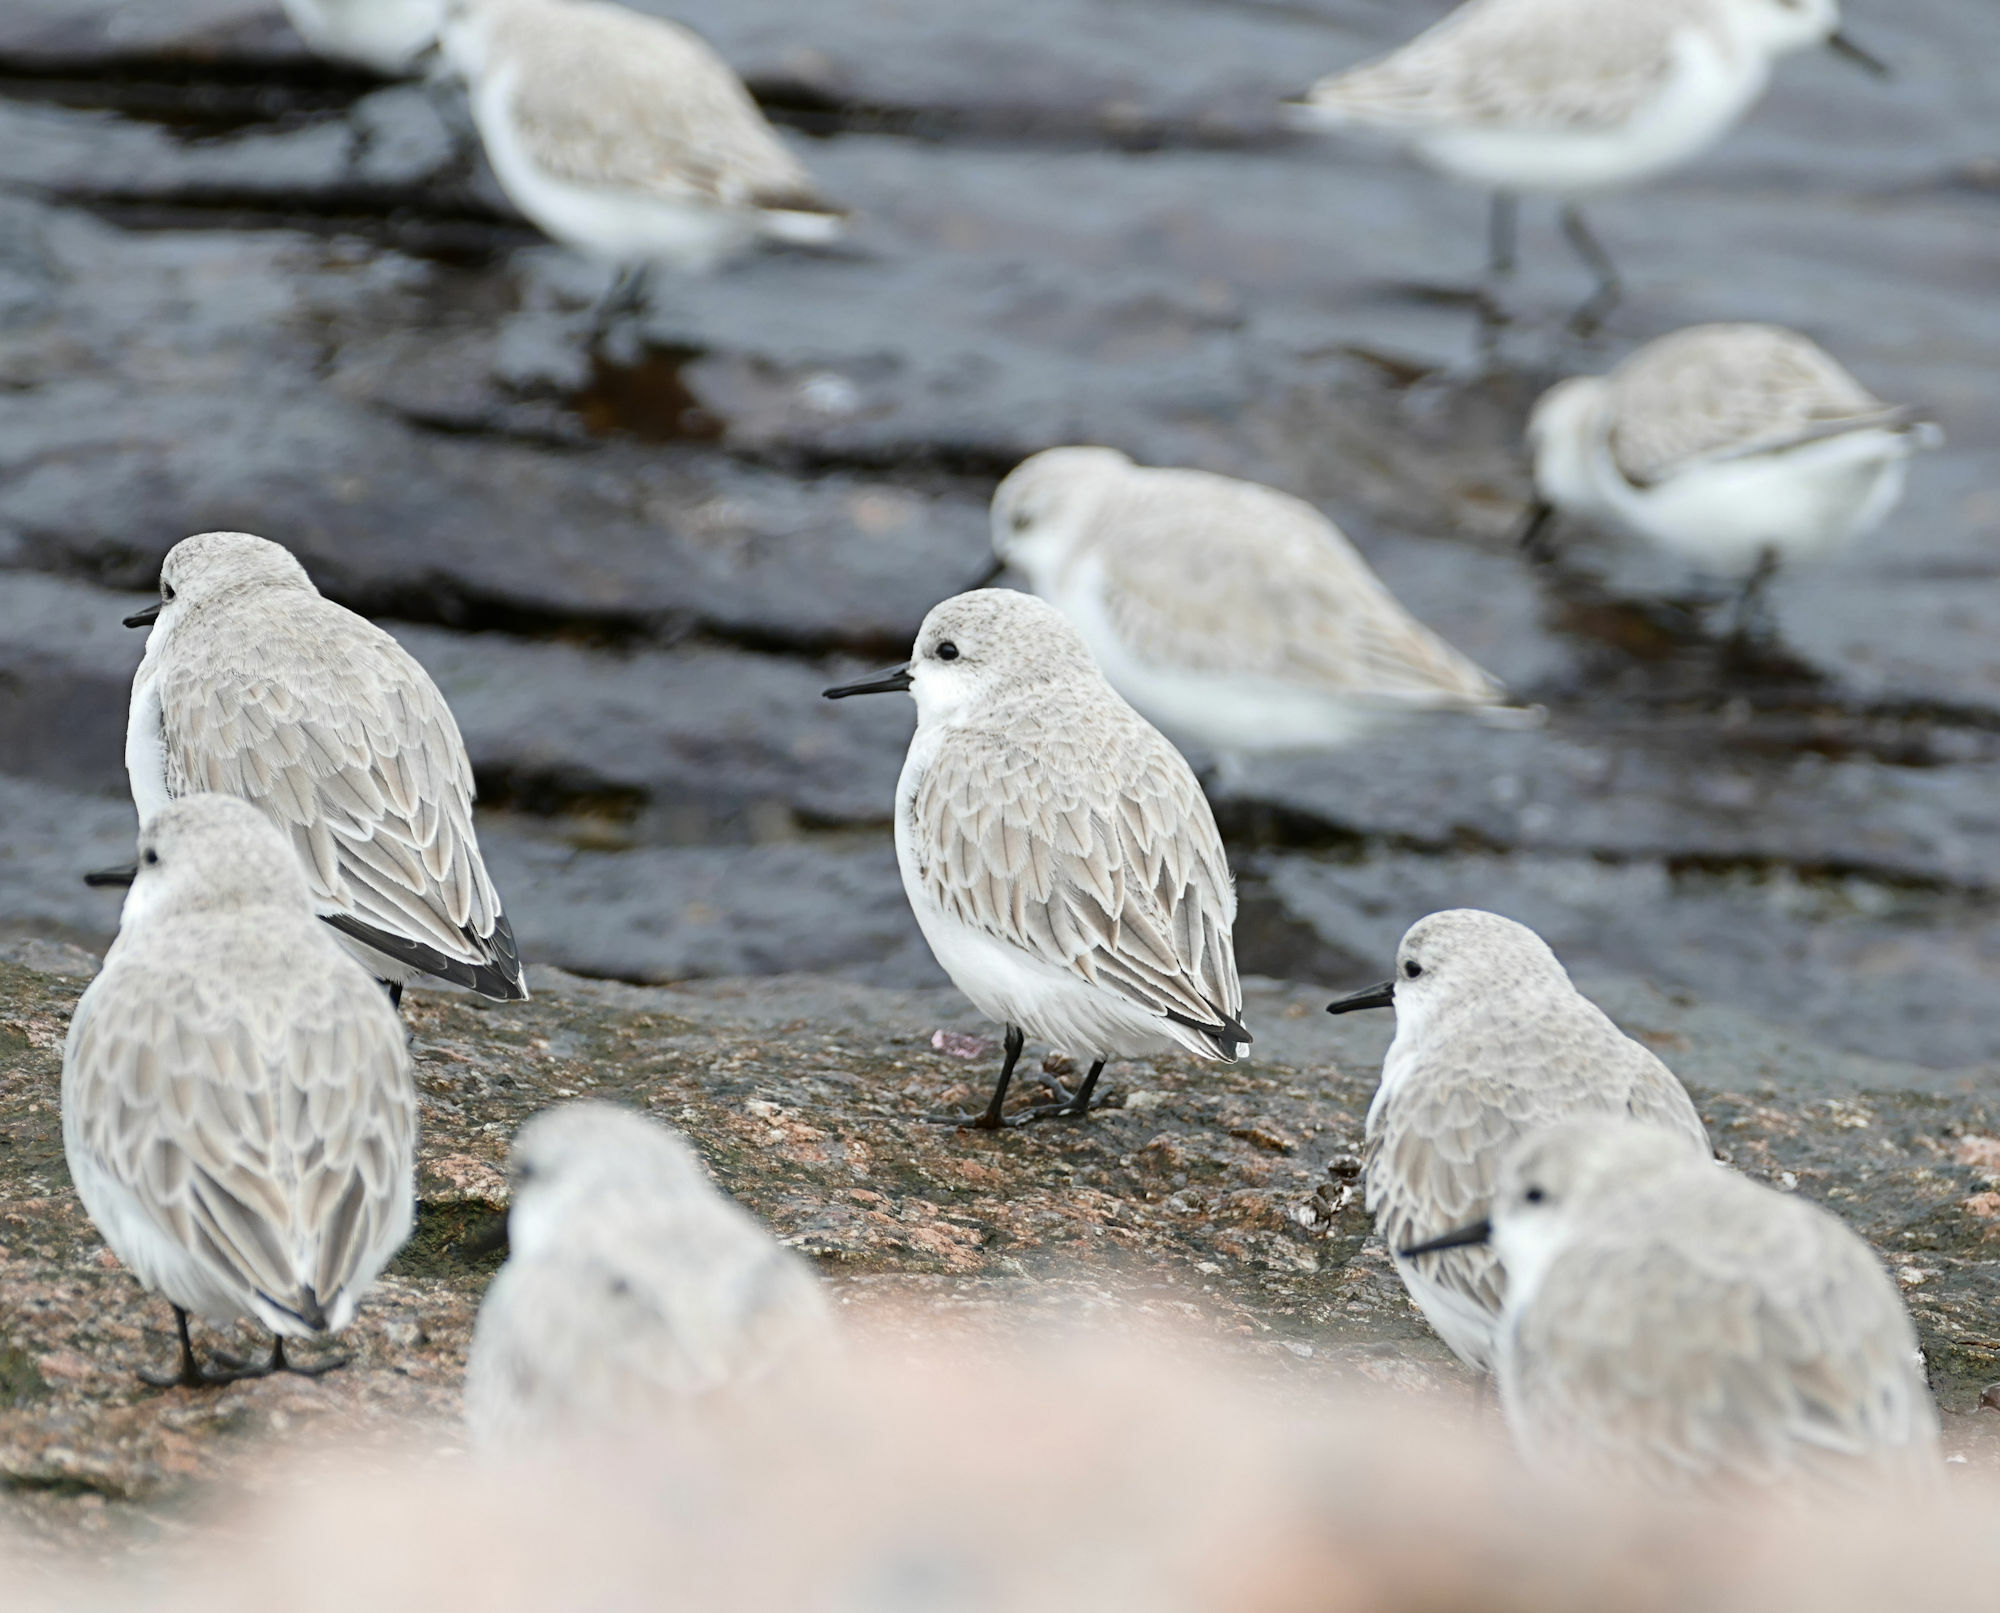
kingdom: Animalia
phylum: Chordata
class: Aves
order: Charadriiformes
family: Scolopacidae
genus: Calidris
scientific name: Calidris alba
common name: Sanderling
